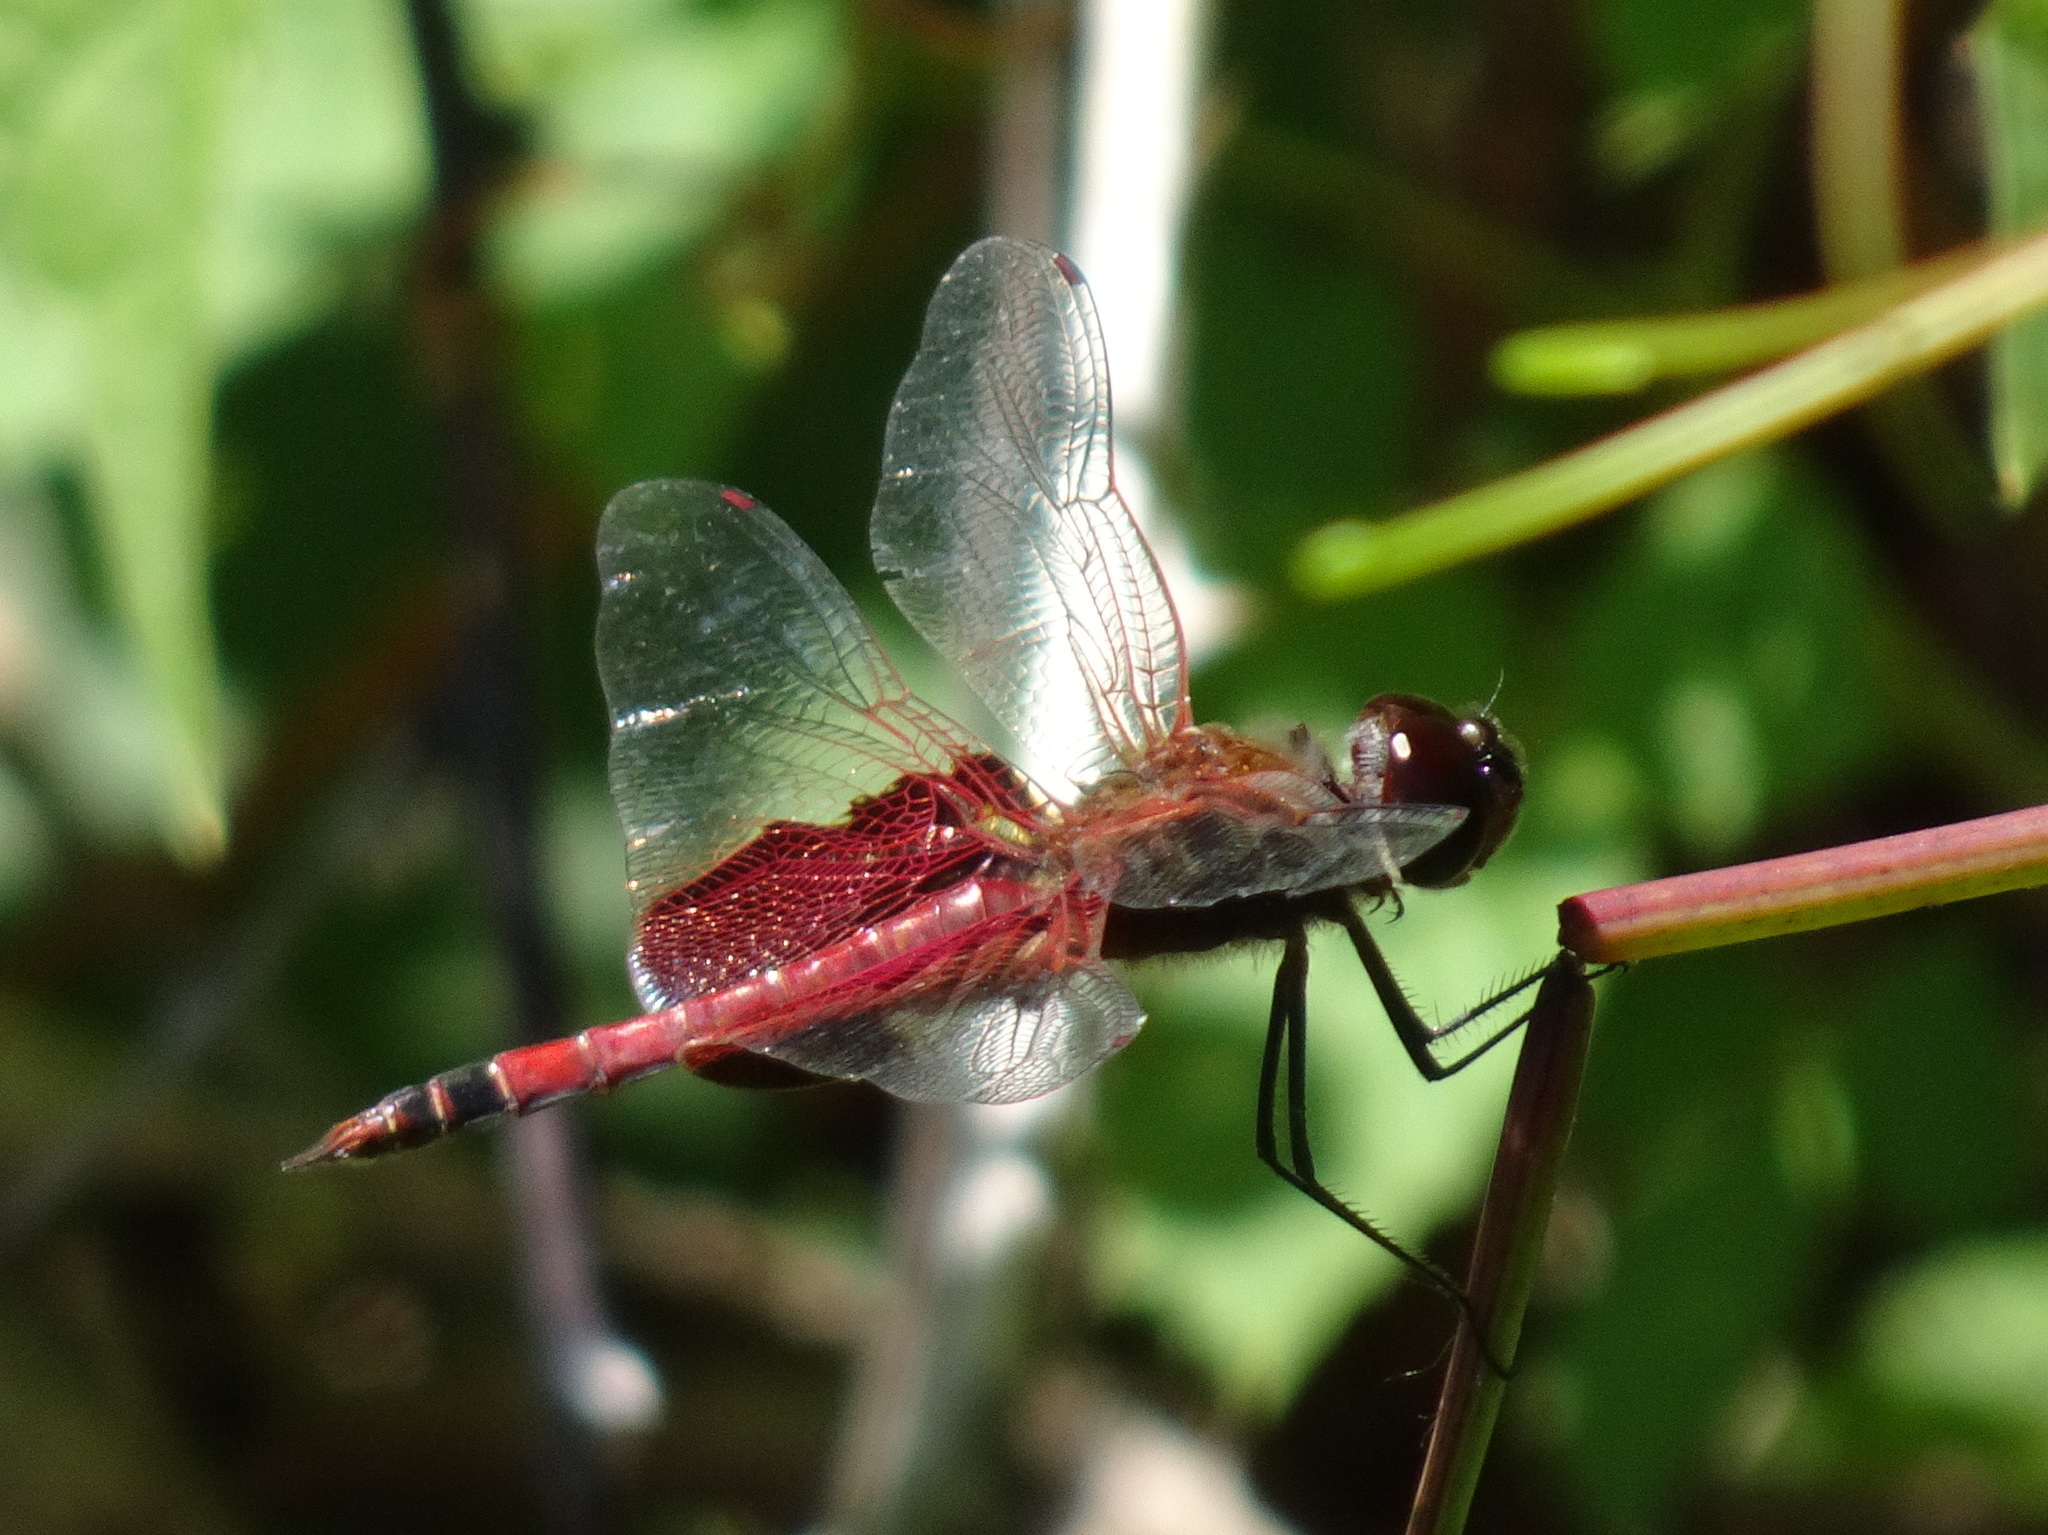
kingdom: Animalia
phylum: Arthropoda
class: Insecta
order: Odonata
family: Libellulidae
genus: Tramea
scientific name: Tramea carolina
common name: Carolina saddlebags
